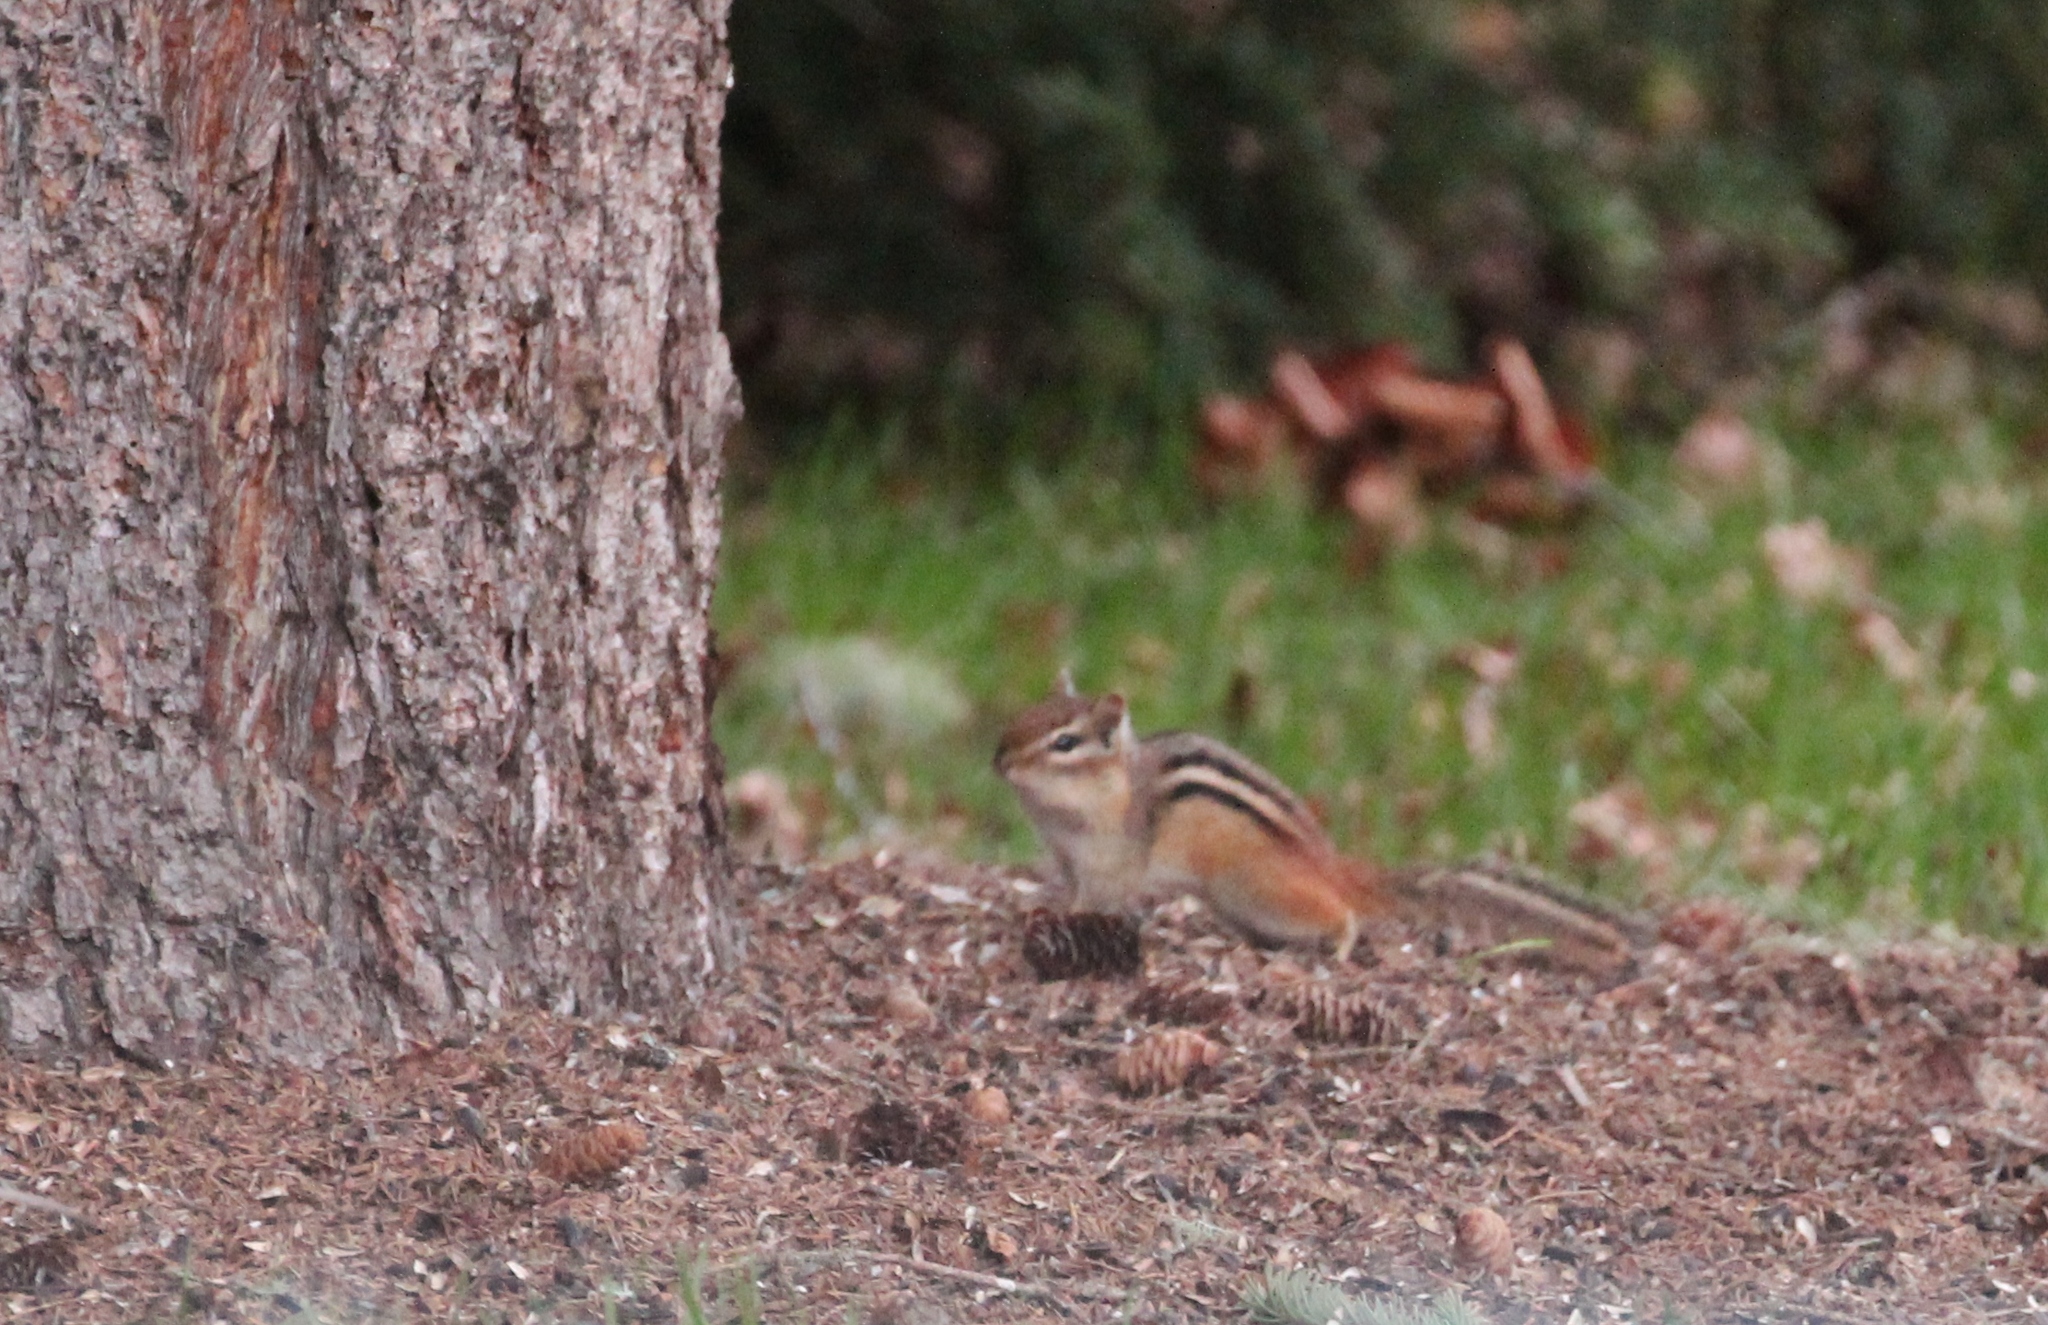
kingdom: Animalia
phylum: Chordata
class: Mammalia
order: Rodentia
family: Sciuridae
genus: Tamias
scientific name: Tamias striatus
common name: Eastern chipmunk
